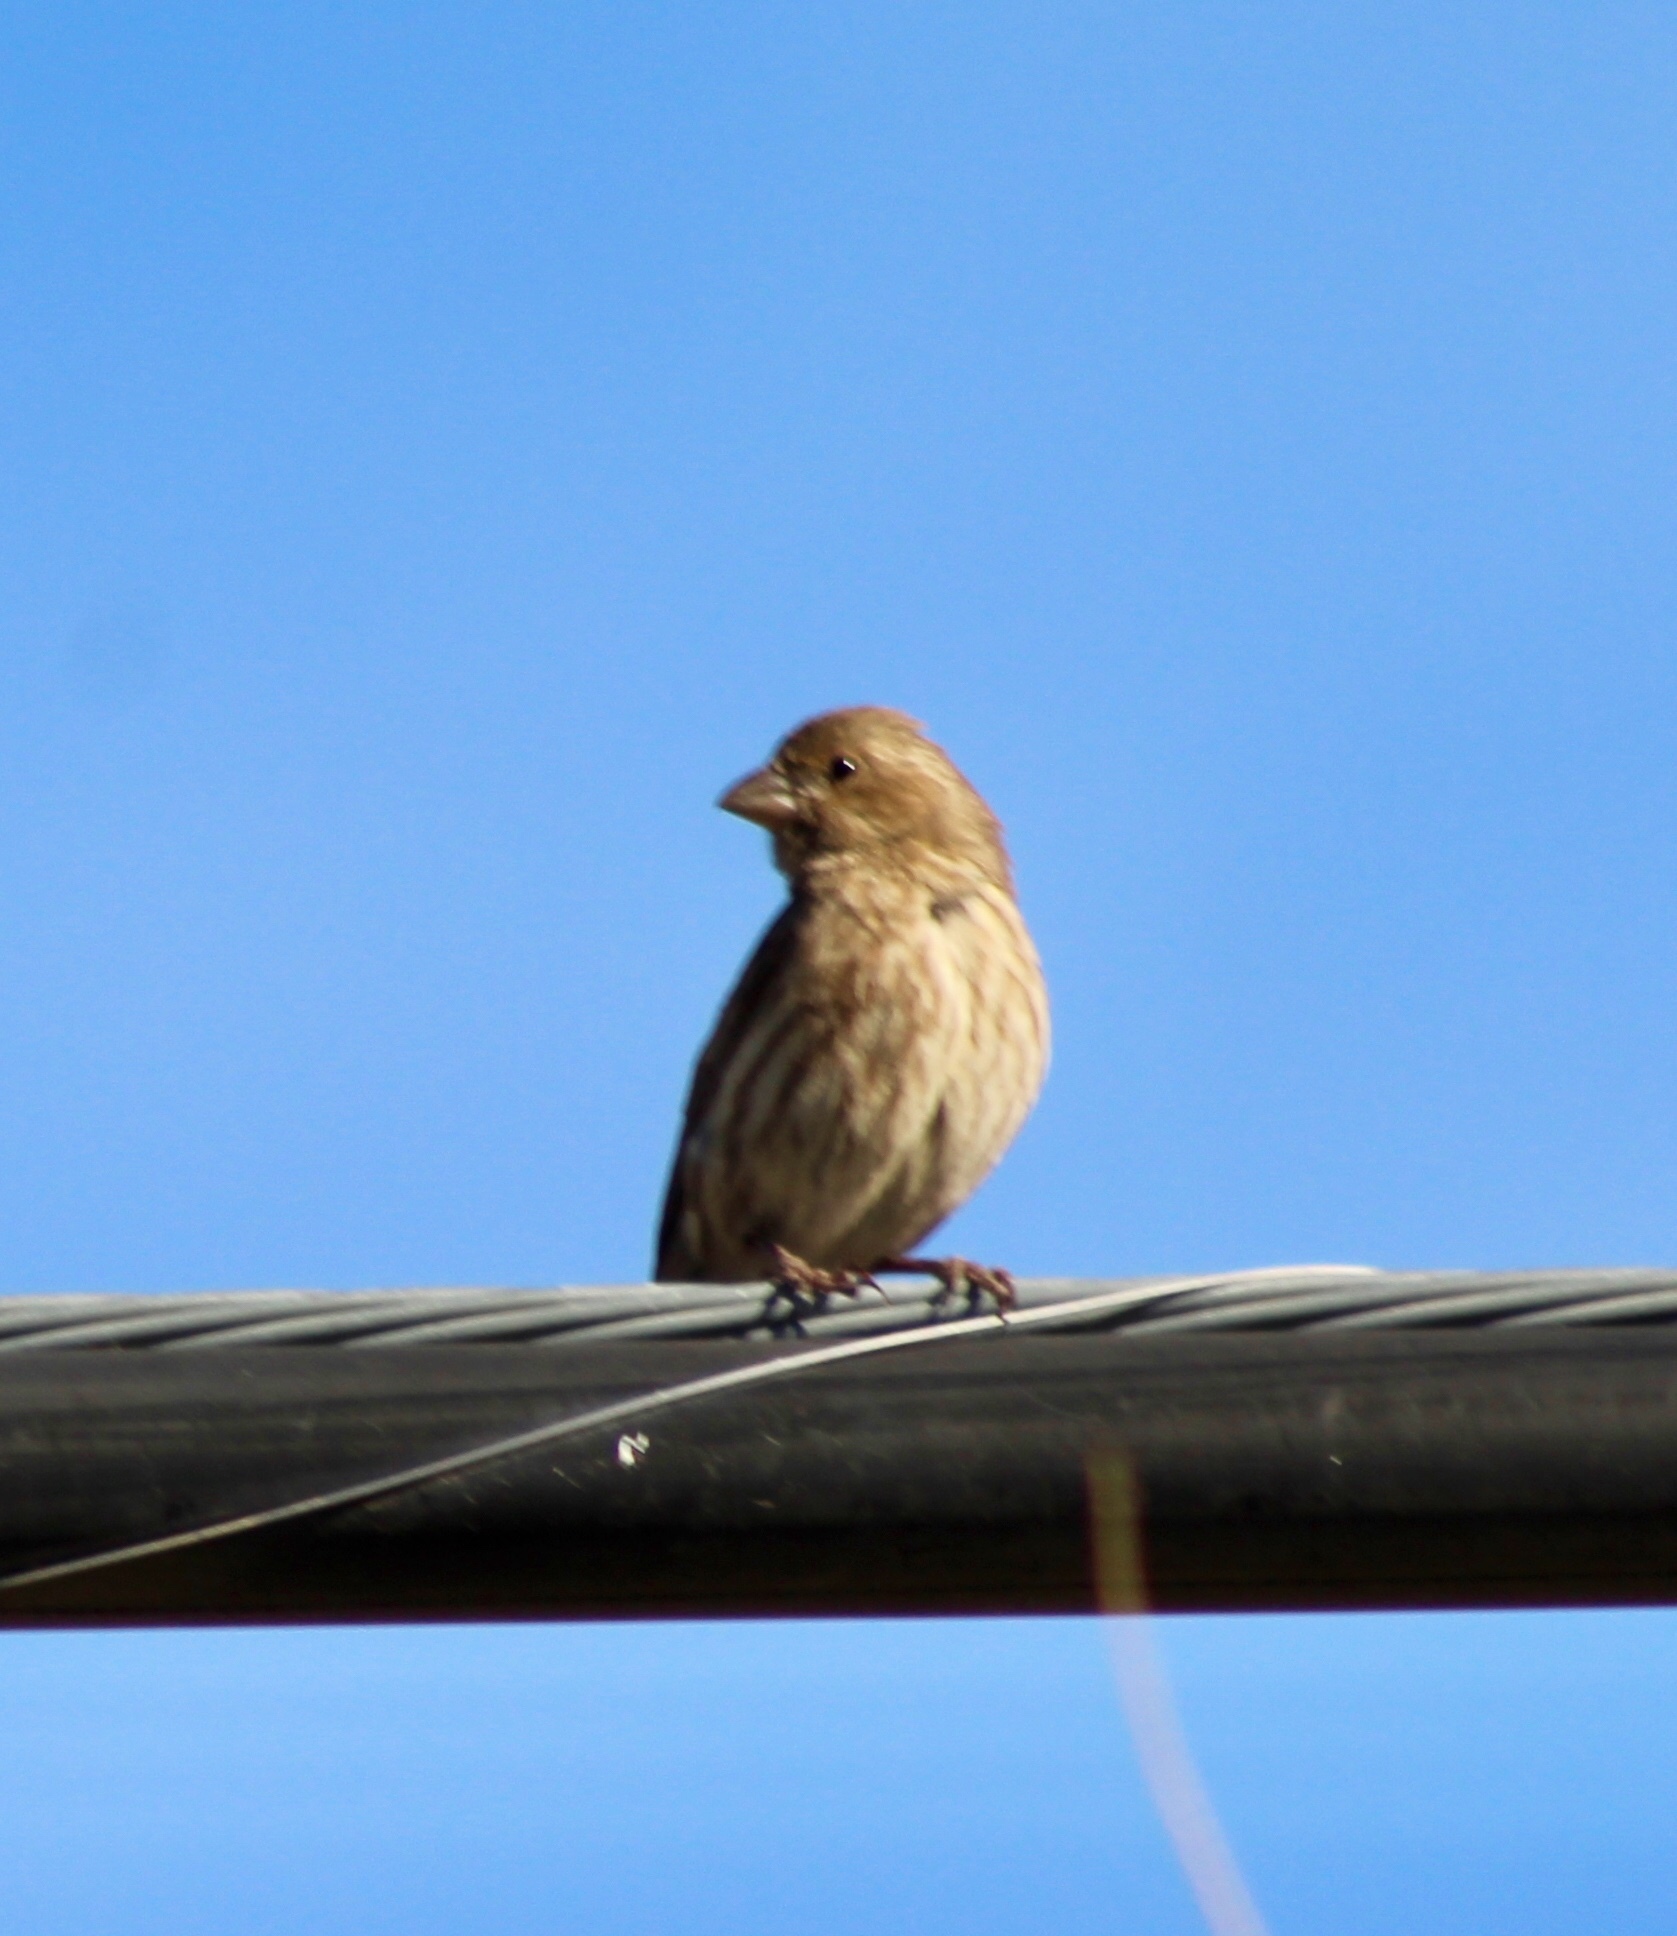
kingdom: Animalia
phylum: Chordata
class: Aves
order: Passeriformes
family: Fringillidae
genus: Haemorhous
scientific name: Haemorhous mexicanus
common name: House finch
